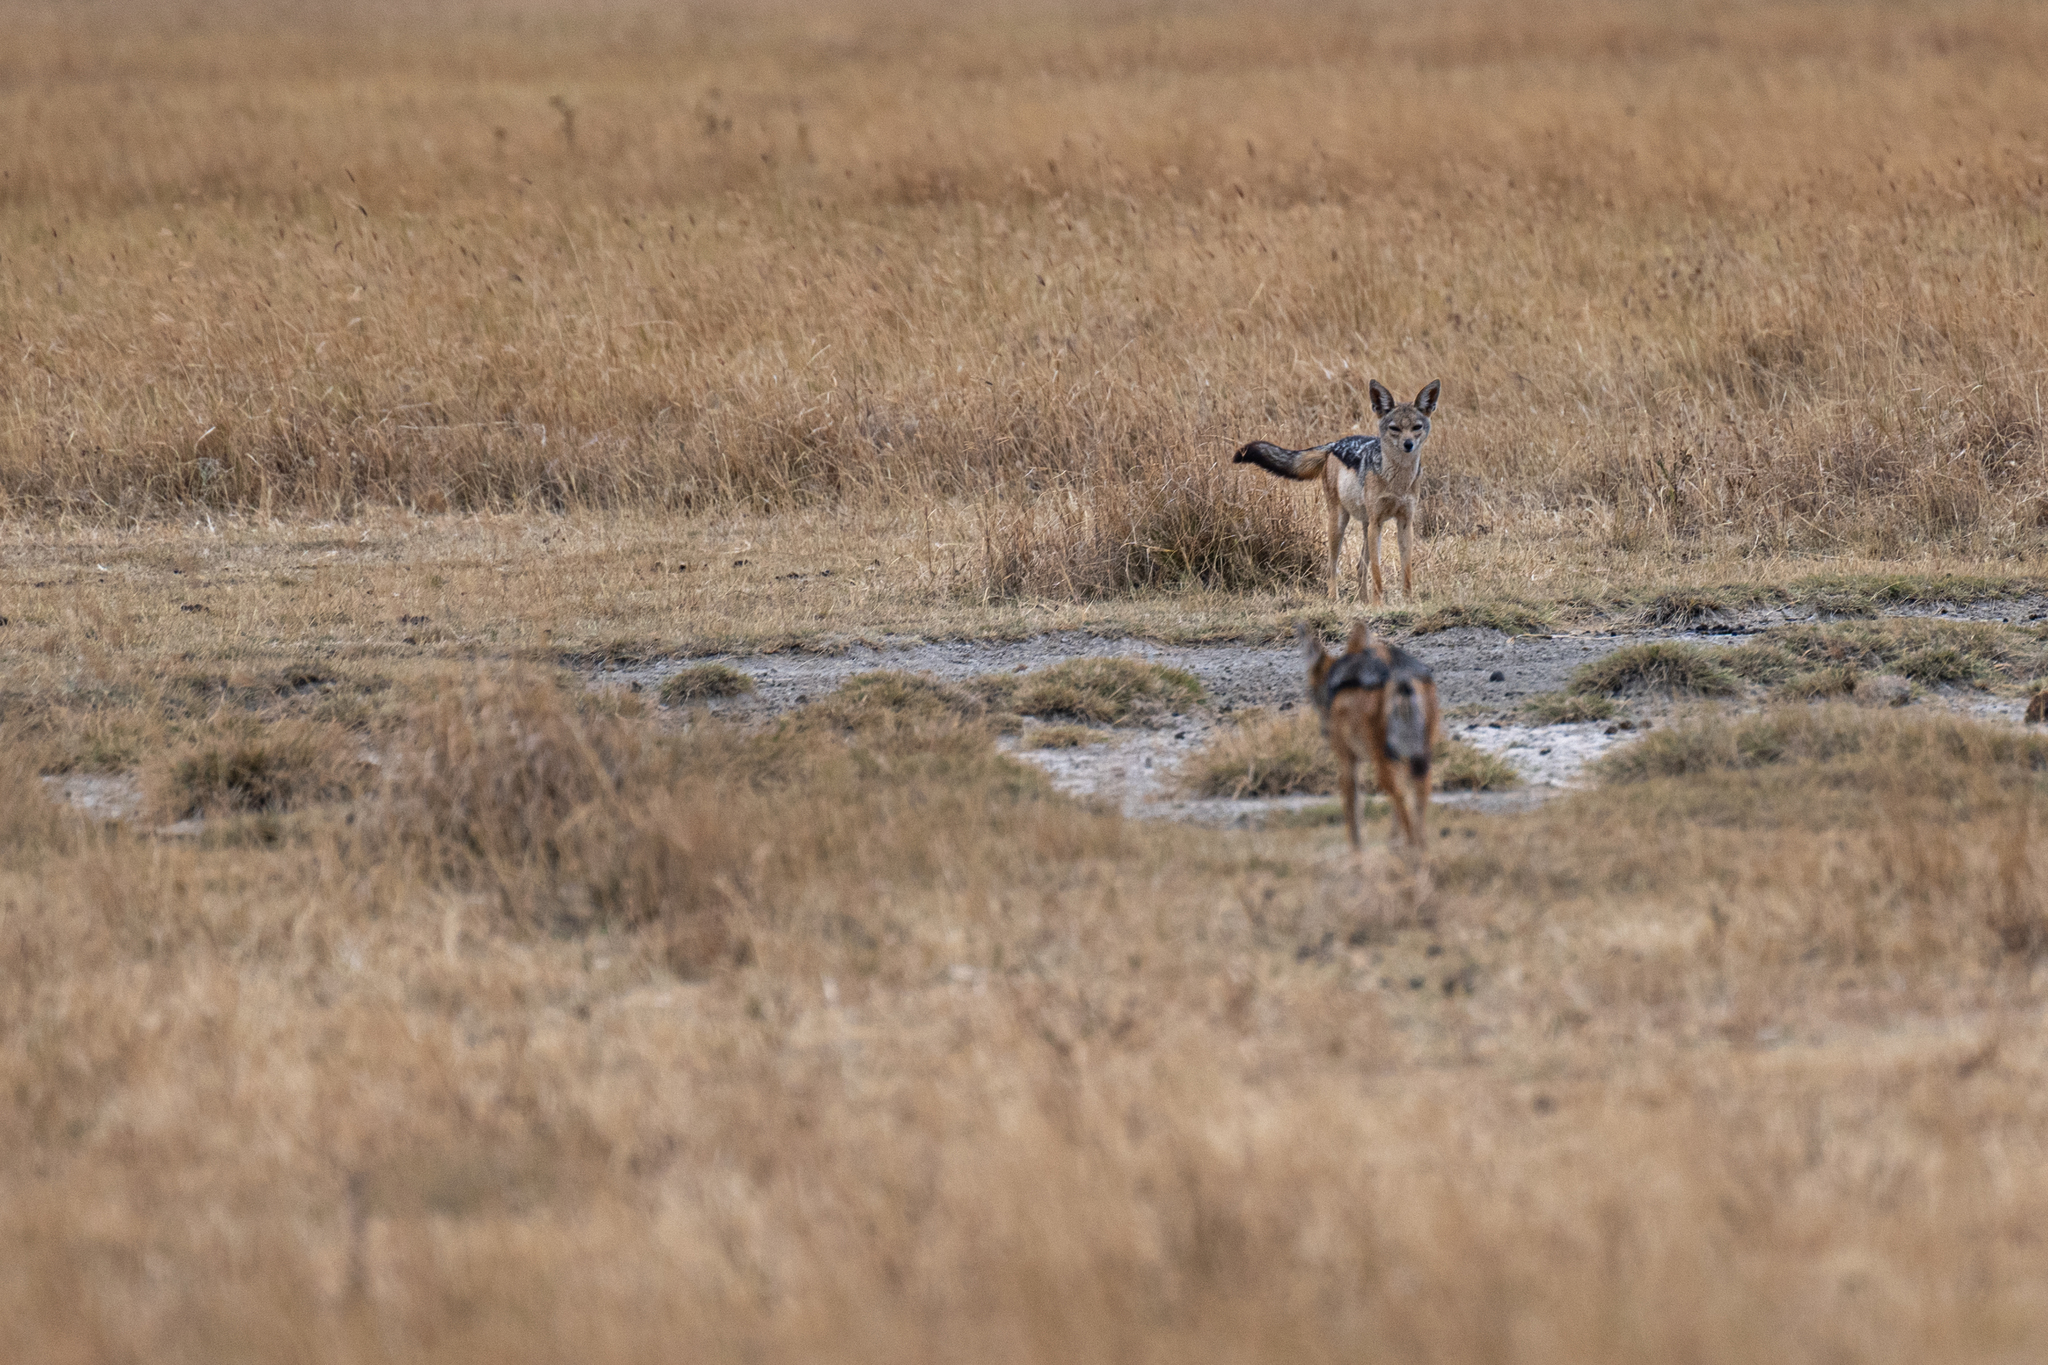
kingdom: Animalia
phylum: Chordata
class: Mammalia
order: Carnivora
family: Canidae
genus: Lupulella
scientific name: Lupulella
